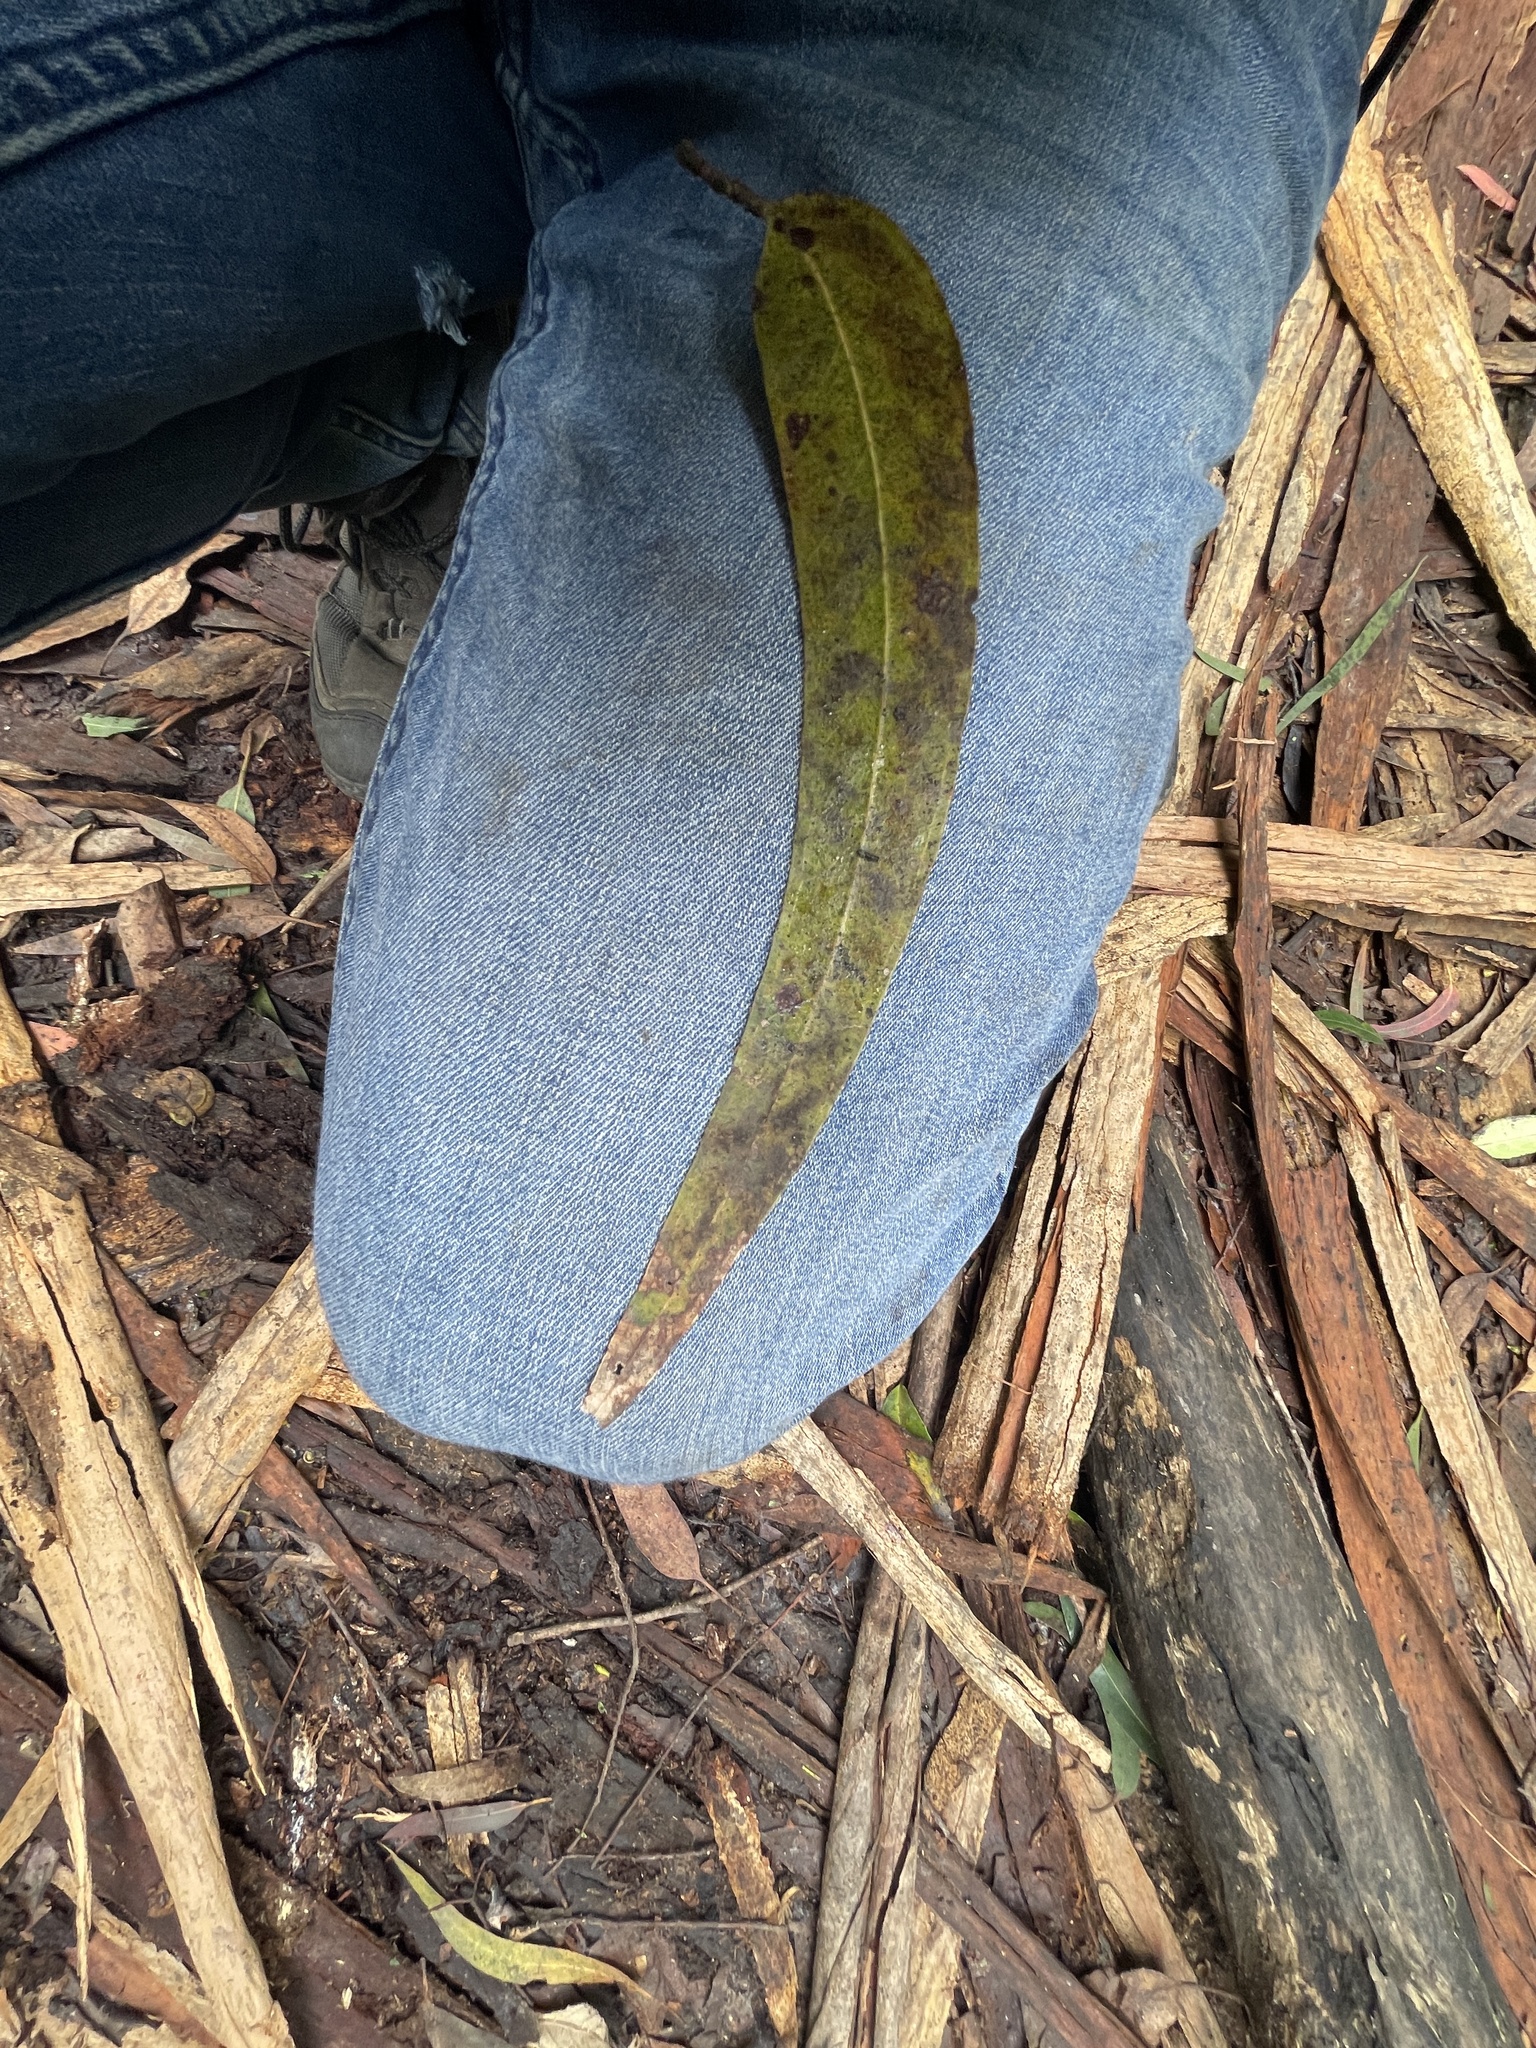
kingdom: Plantae
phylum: Tracheophyta
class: Magnoliopsida
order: Myrtales
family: Myrtaceae
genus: Eucalyptus
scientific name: Eucalyptus viminalis
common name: Manna gum
